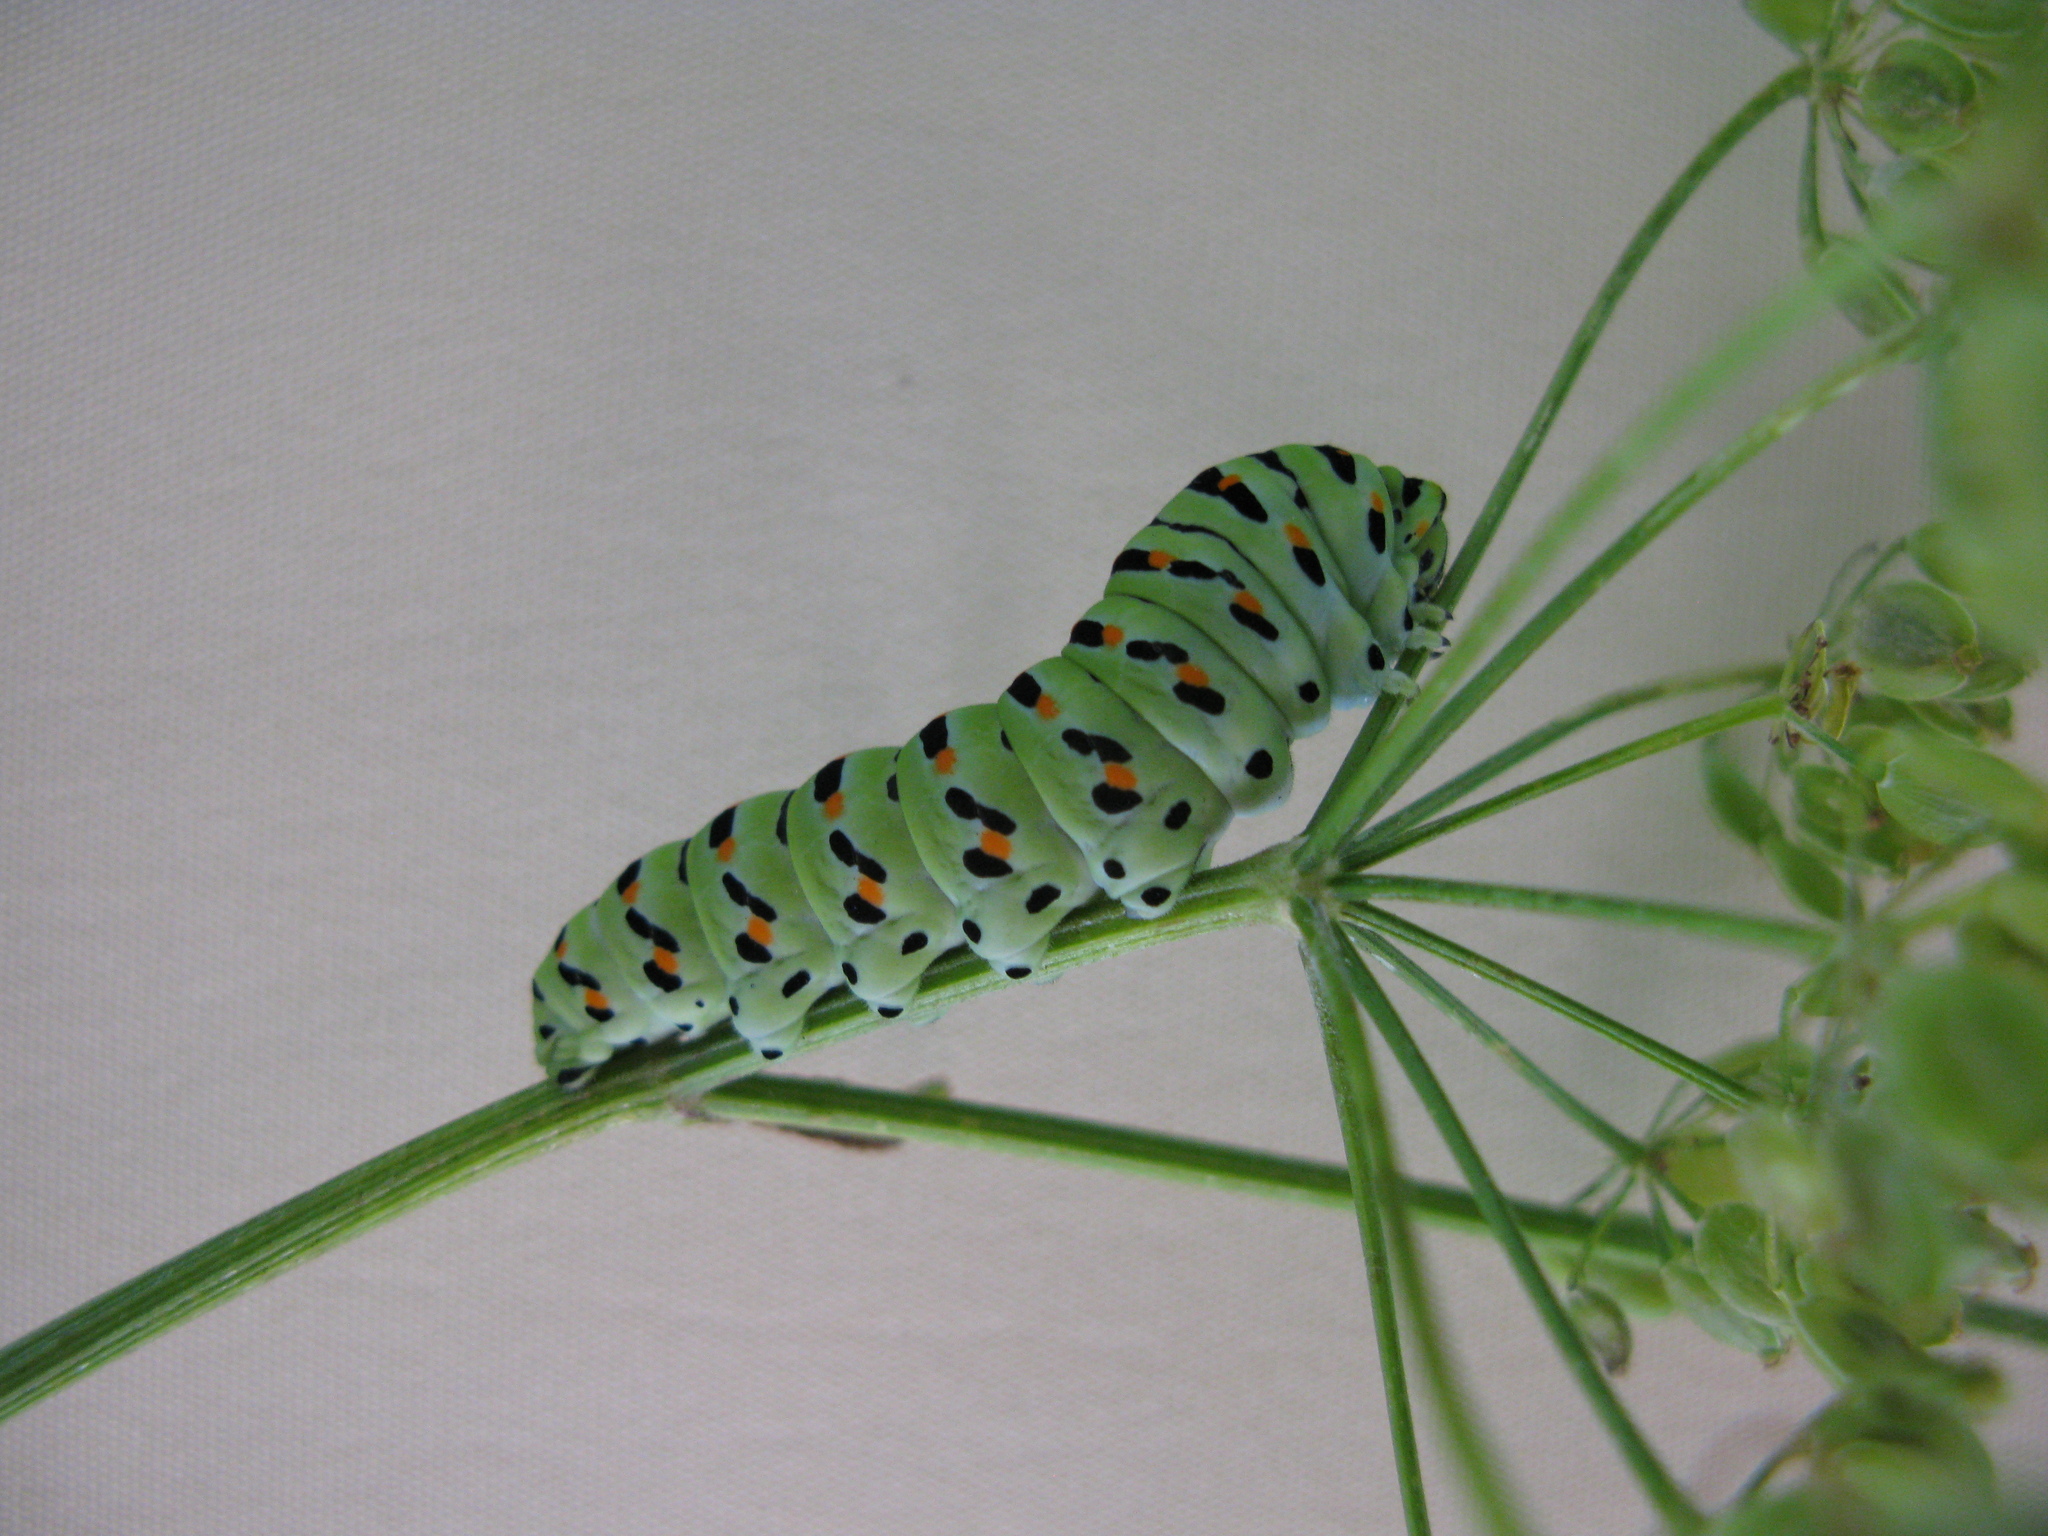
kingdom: Animalia
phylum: Arthropoda
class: Insecta
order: Lepidoptera
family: Papilionidae
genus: Papilio
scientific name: Papilio machaon
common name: Swallowtail
